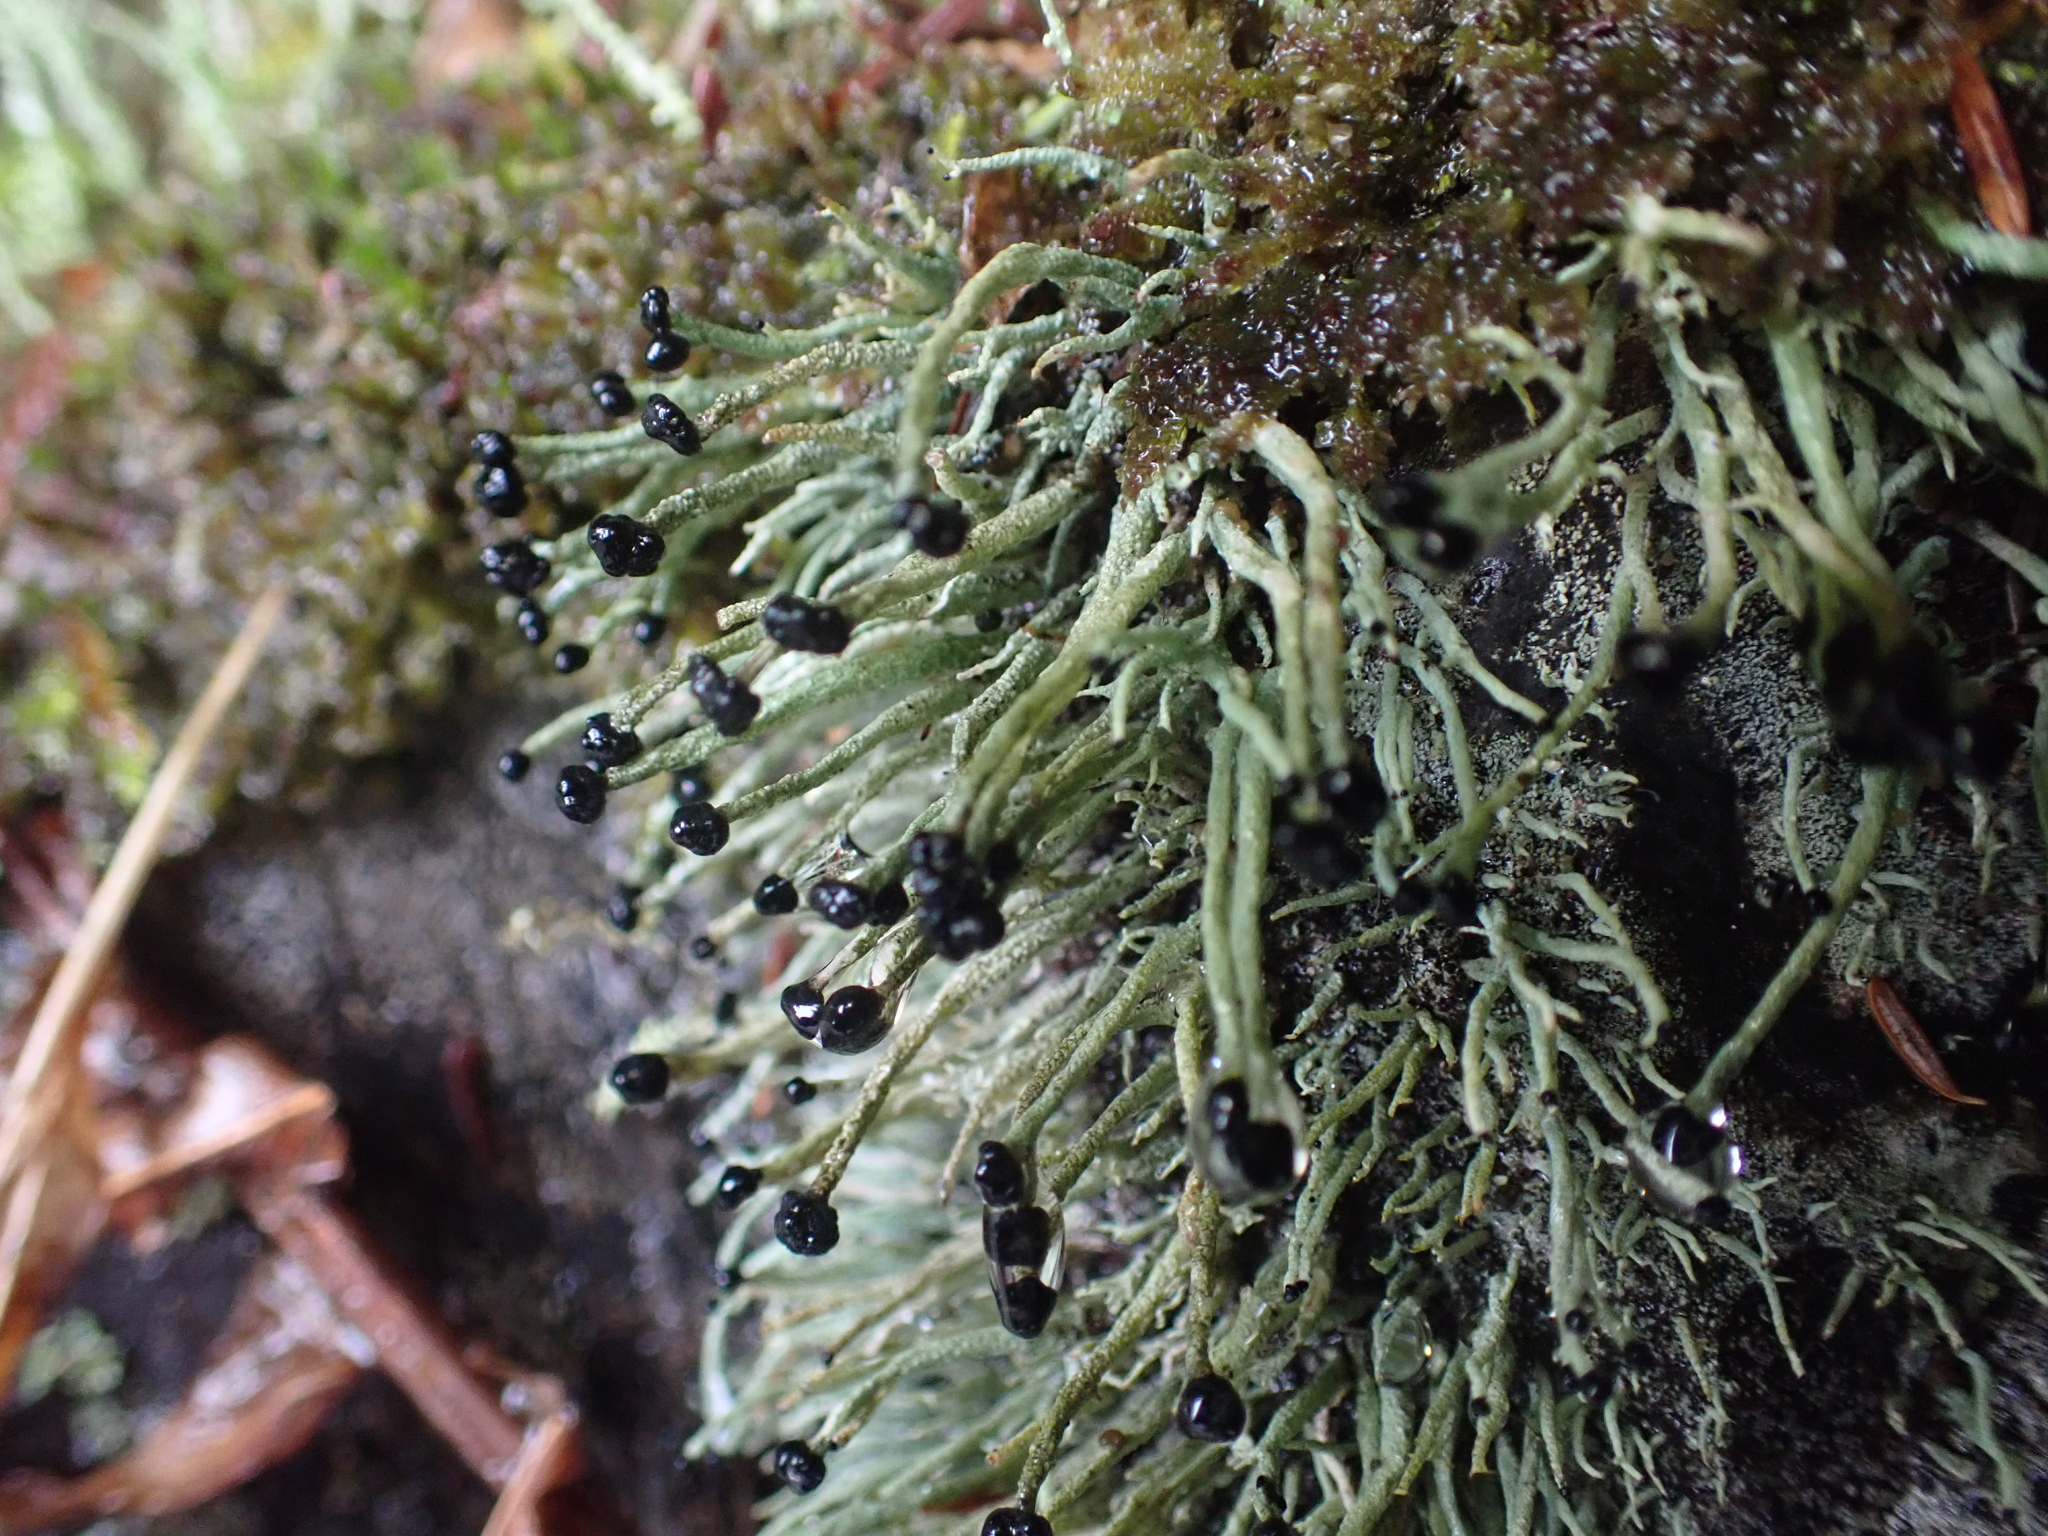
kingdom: Fungi
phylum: Ascomycota
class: Lecanoromycetes
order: Lecanorales
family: Cladoniaceae
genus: Pilophorus
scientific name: Pilophorus acicularis
